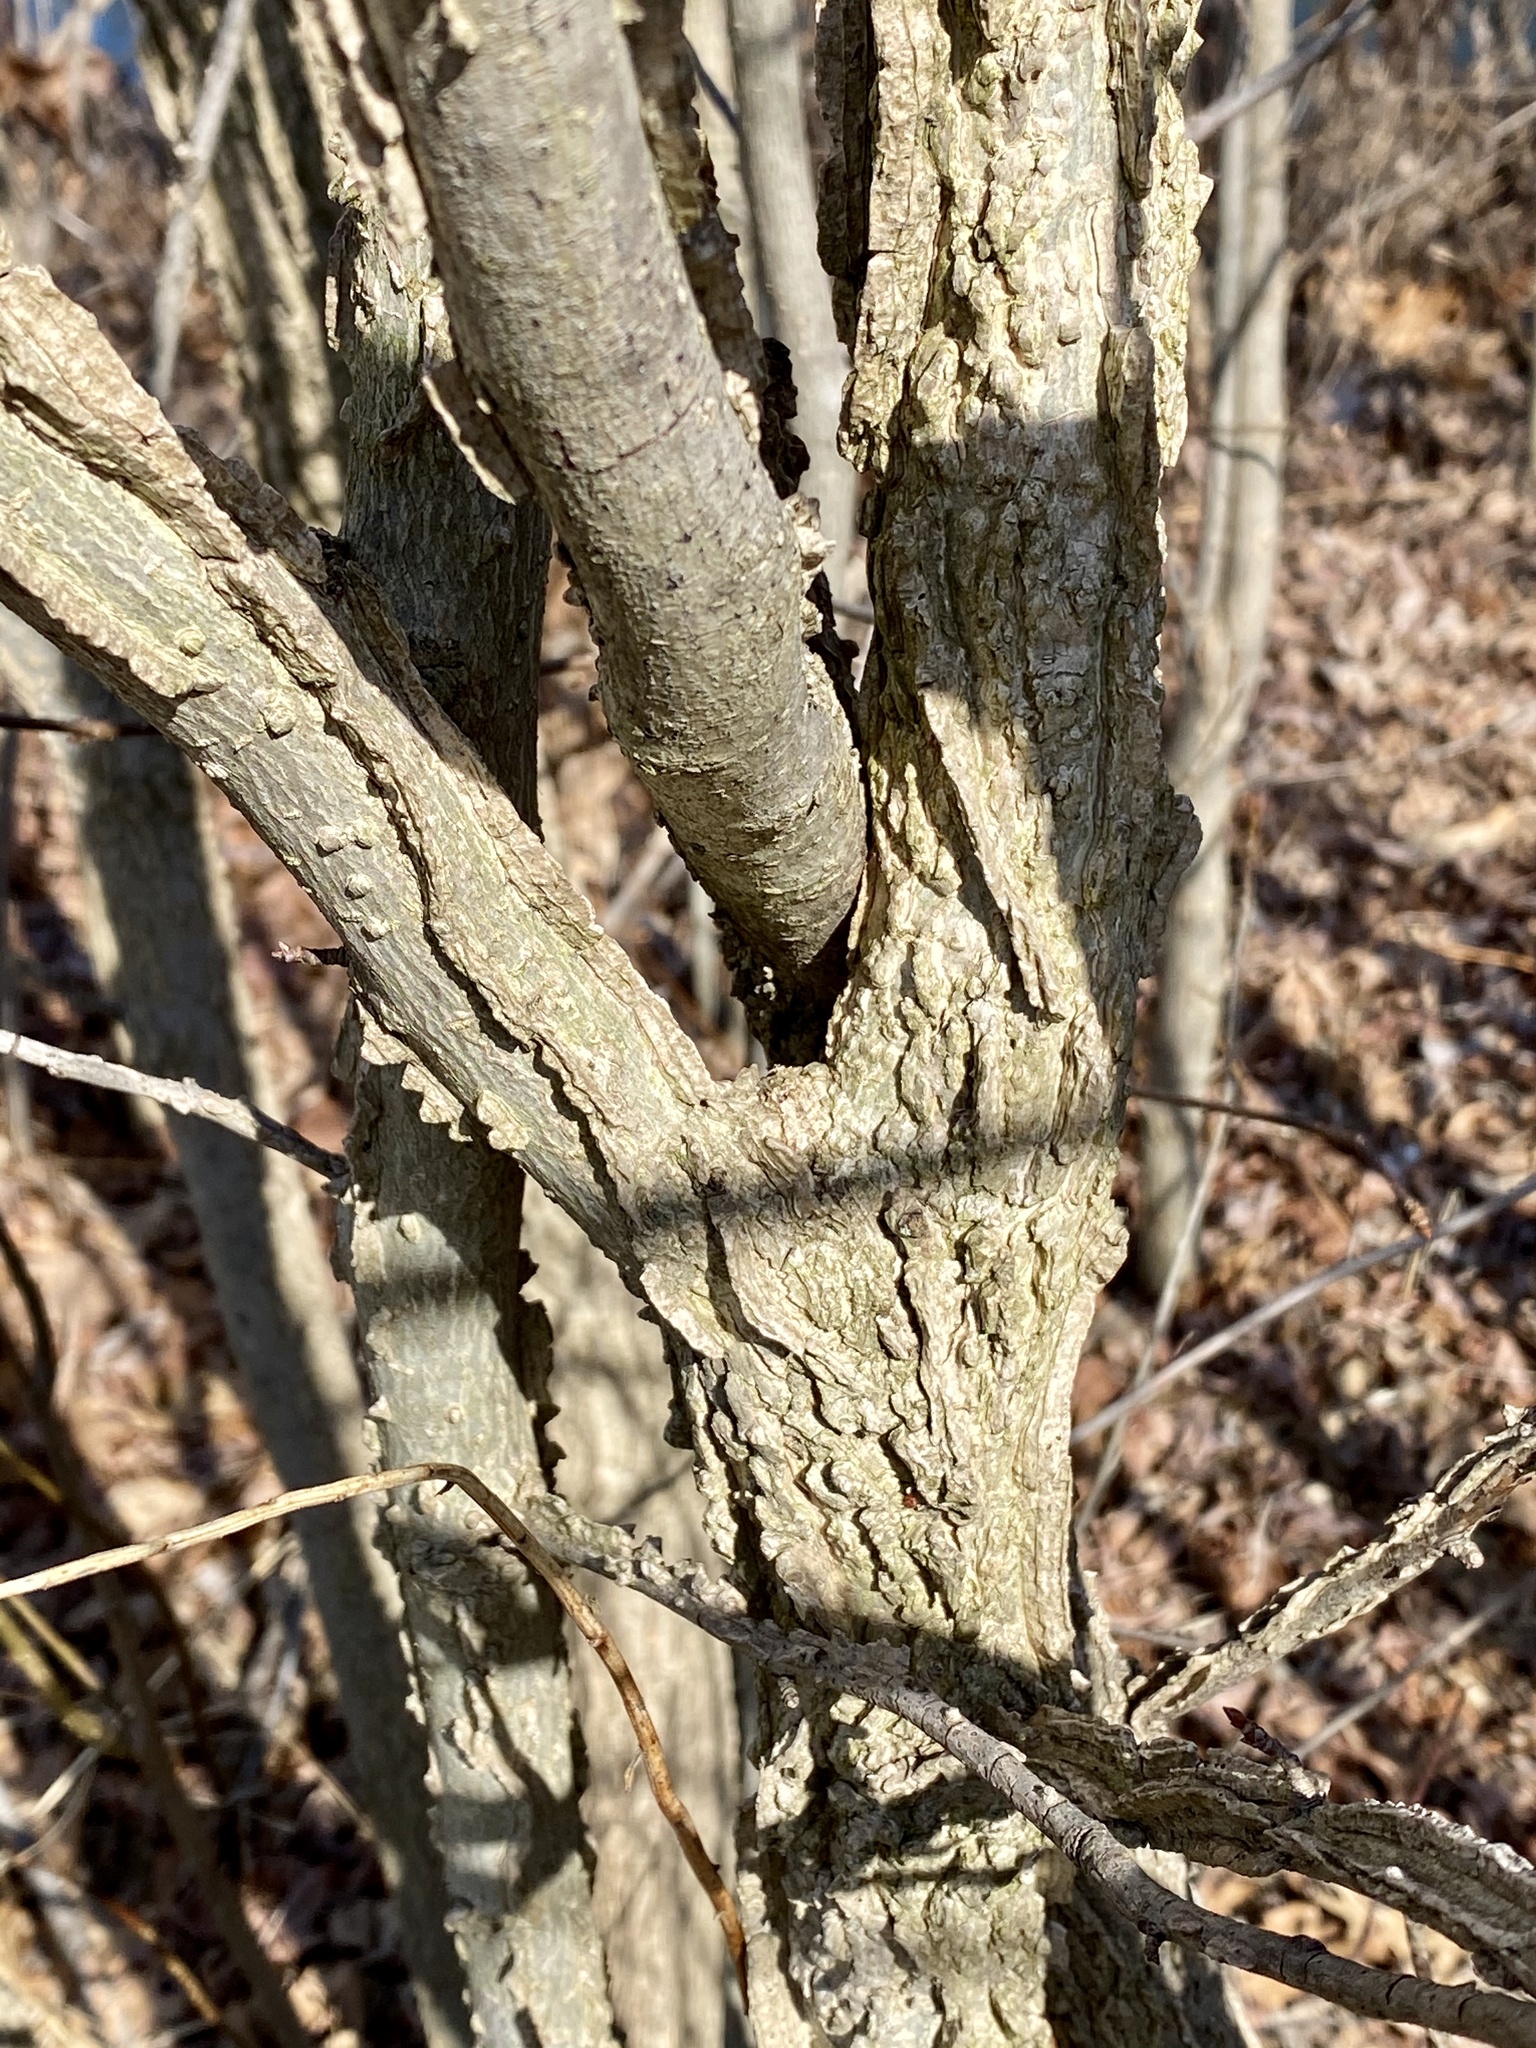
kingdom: Plantae
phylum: Tracheophyta
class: Magnoliopsida
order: Saxifragales
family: Altingiaceae
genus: Liquidambar
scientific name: Liquidambar styraciflua
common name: Sweet gum
